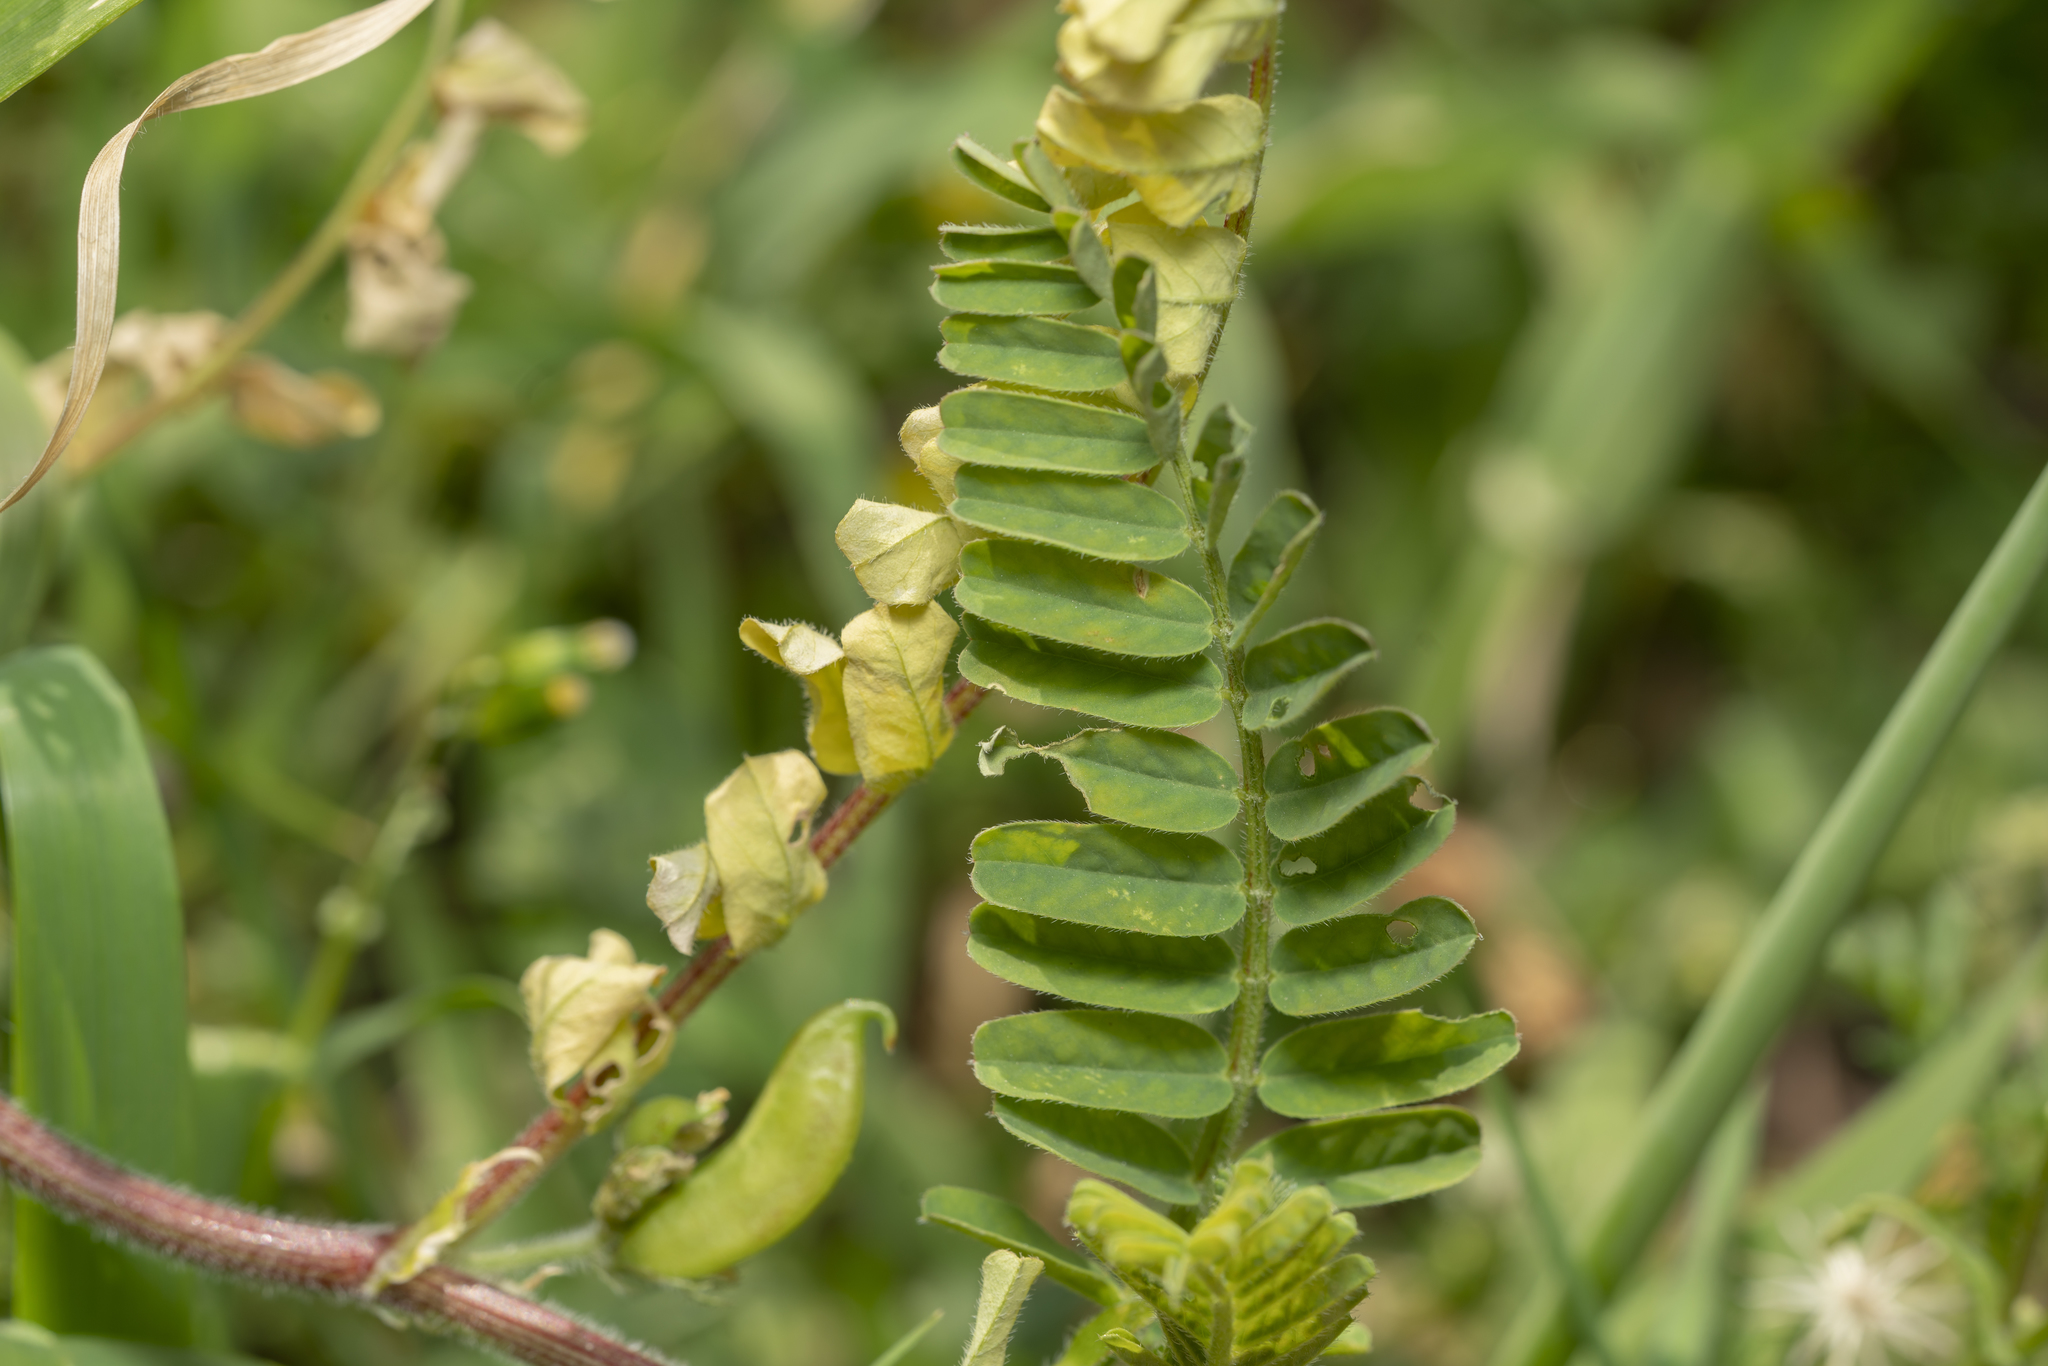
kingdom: Plantae
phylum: Tracheophyta
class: Magnoliopsida
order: Fabales
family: Fabaceae
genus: Astragalus
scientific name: Astragalus boeticus
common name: Milk-vetch
